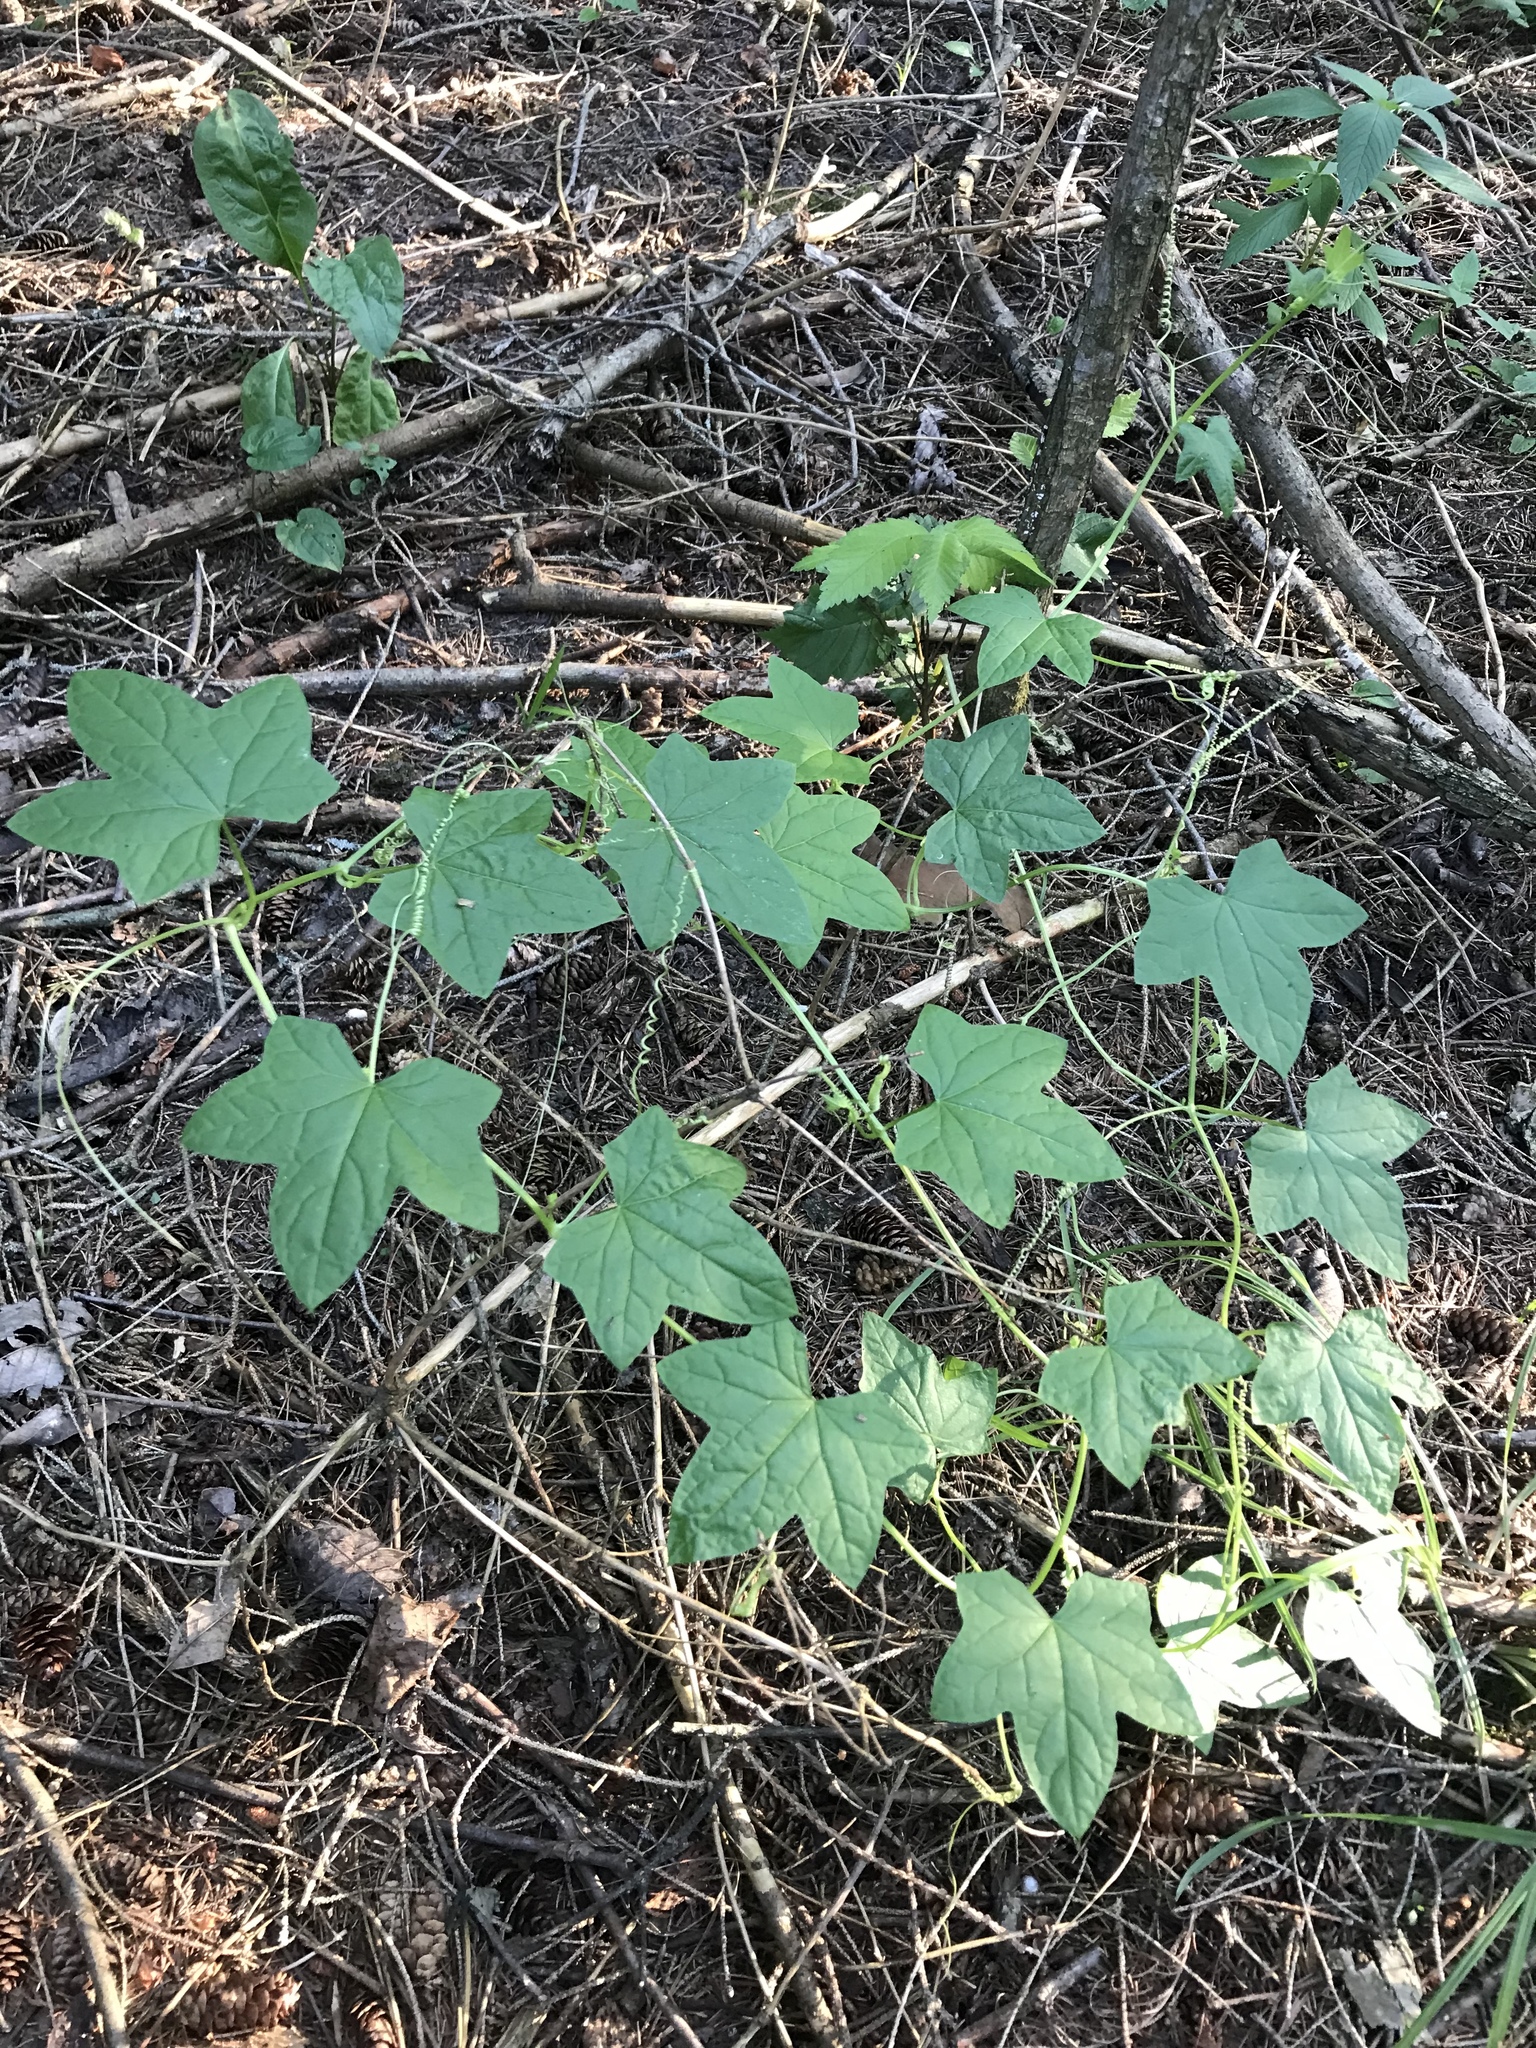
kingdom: Plantae
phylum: Tracheophyta
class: Magnoliopsida
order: Cucurbitales
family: Cucurbitaceae
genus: Echinocystis
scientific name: Echinocystis lobata
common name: Wild cucumber
